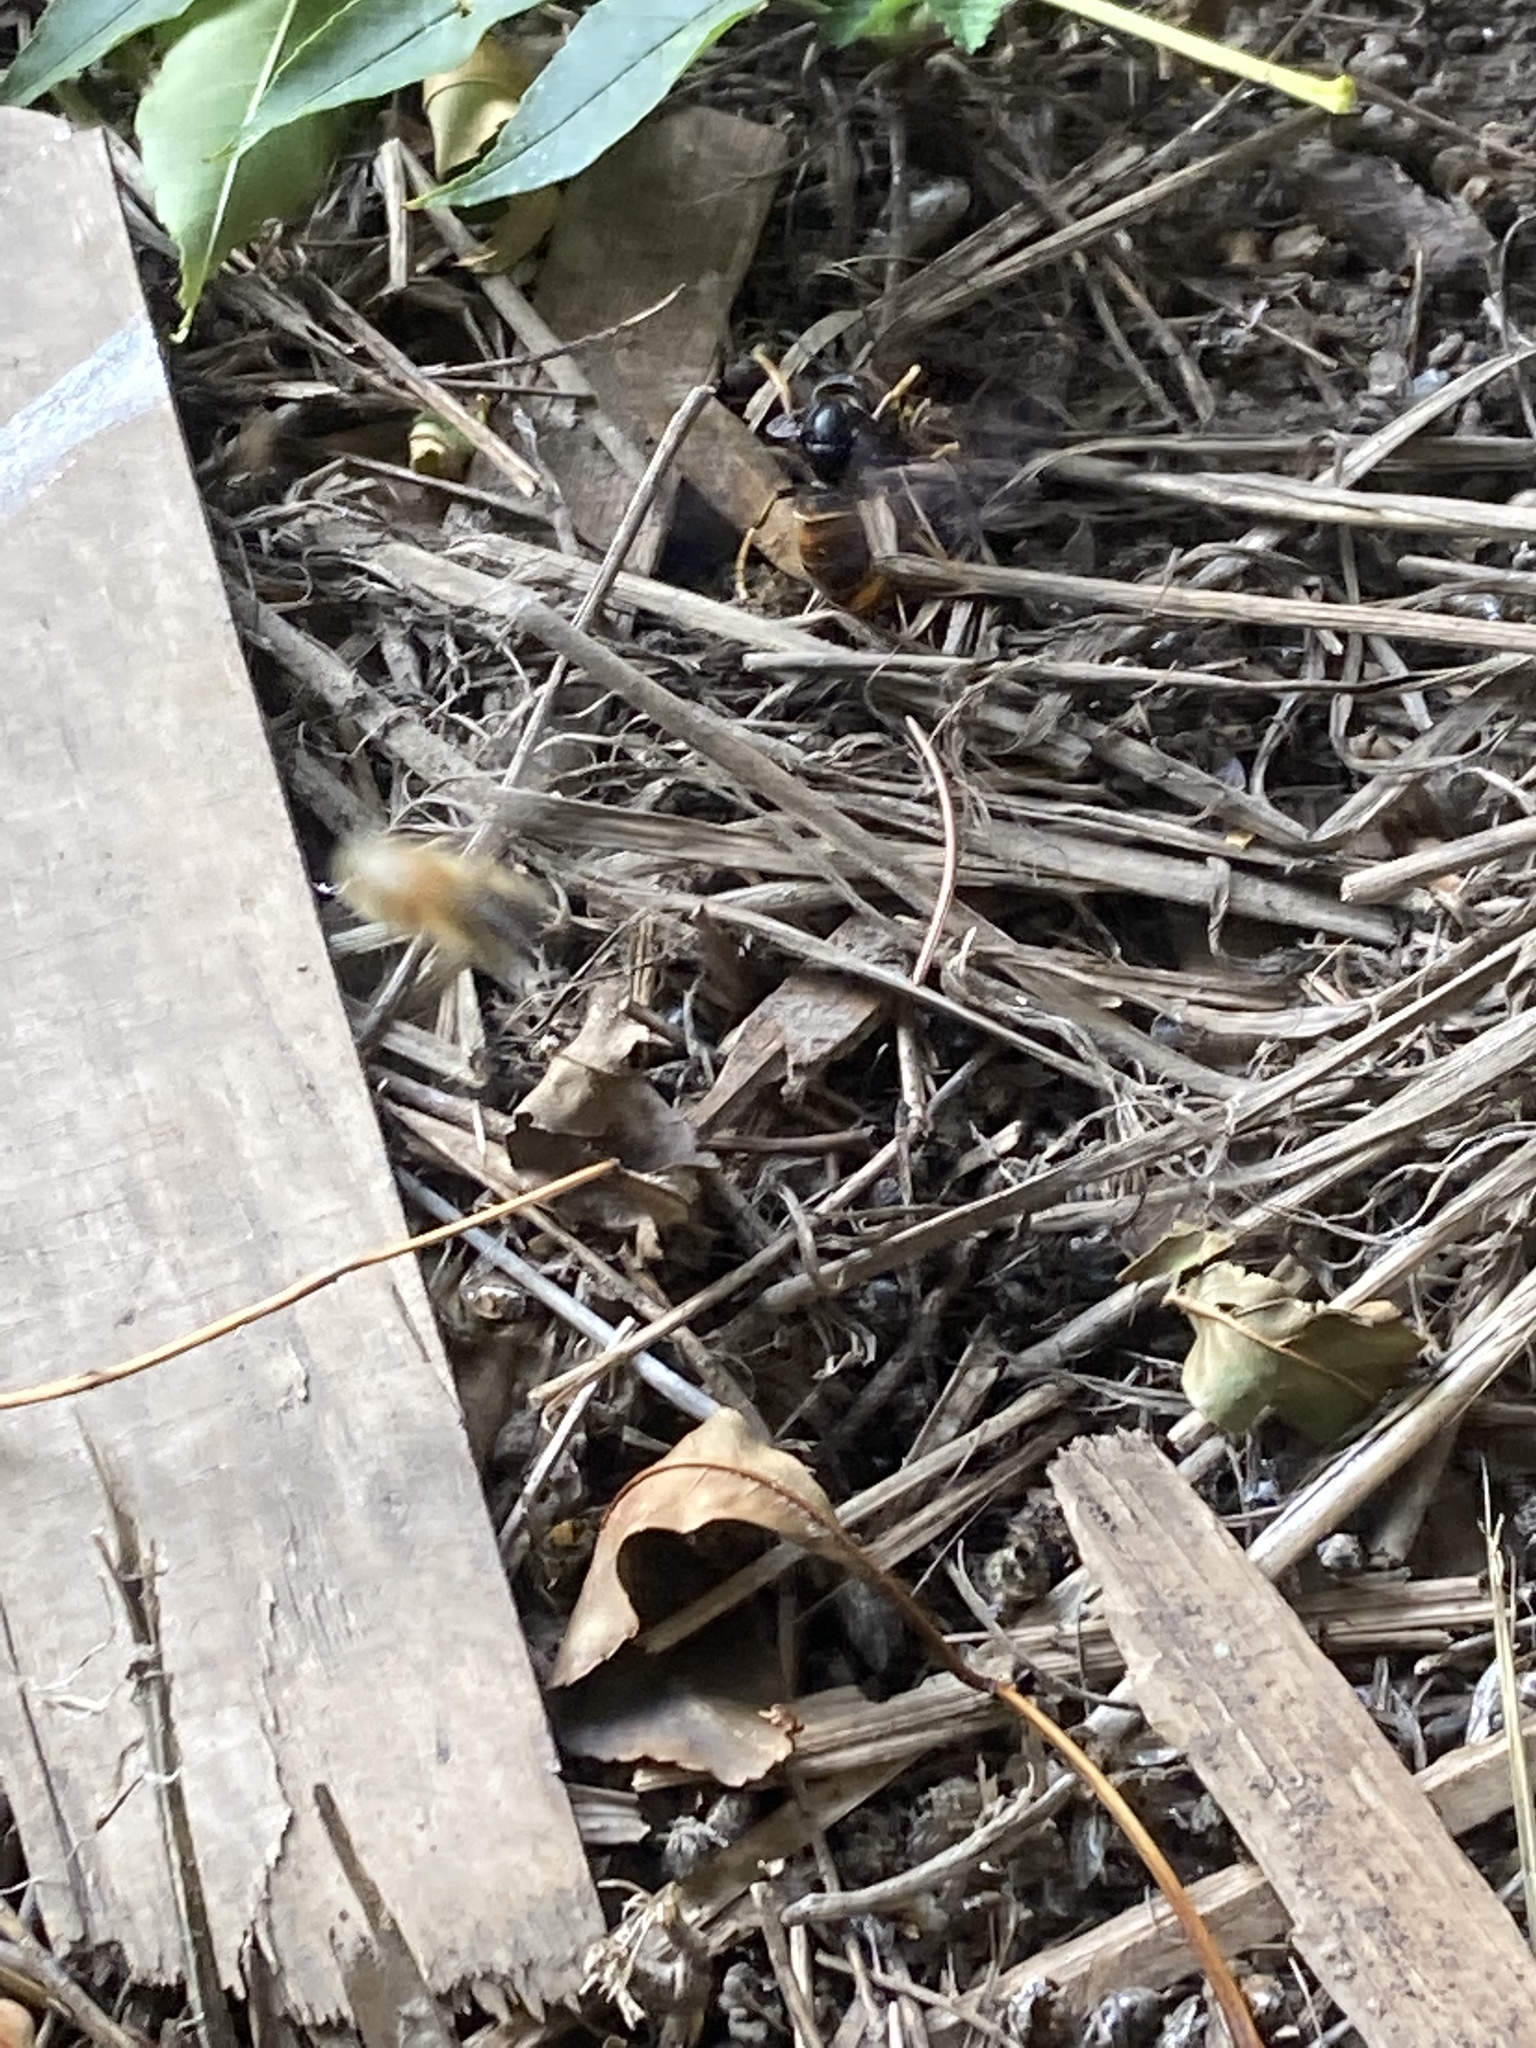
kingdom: Animalia
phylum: Arthropoda
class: Insecta
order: Hymenoptera
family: Vespidae
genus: Vespa
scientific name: Vespa velutina
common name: Asian hornet
